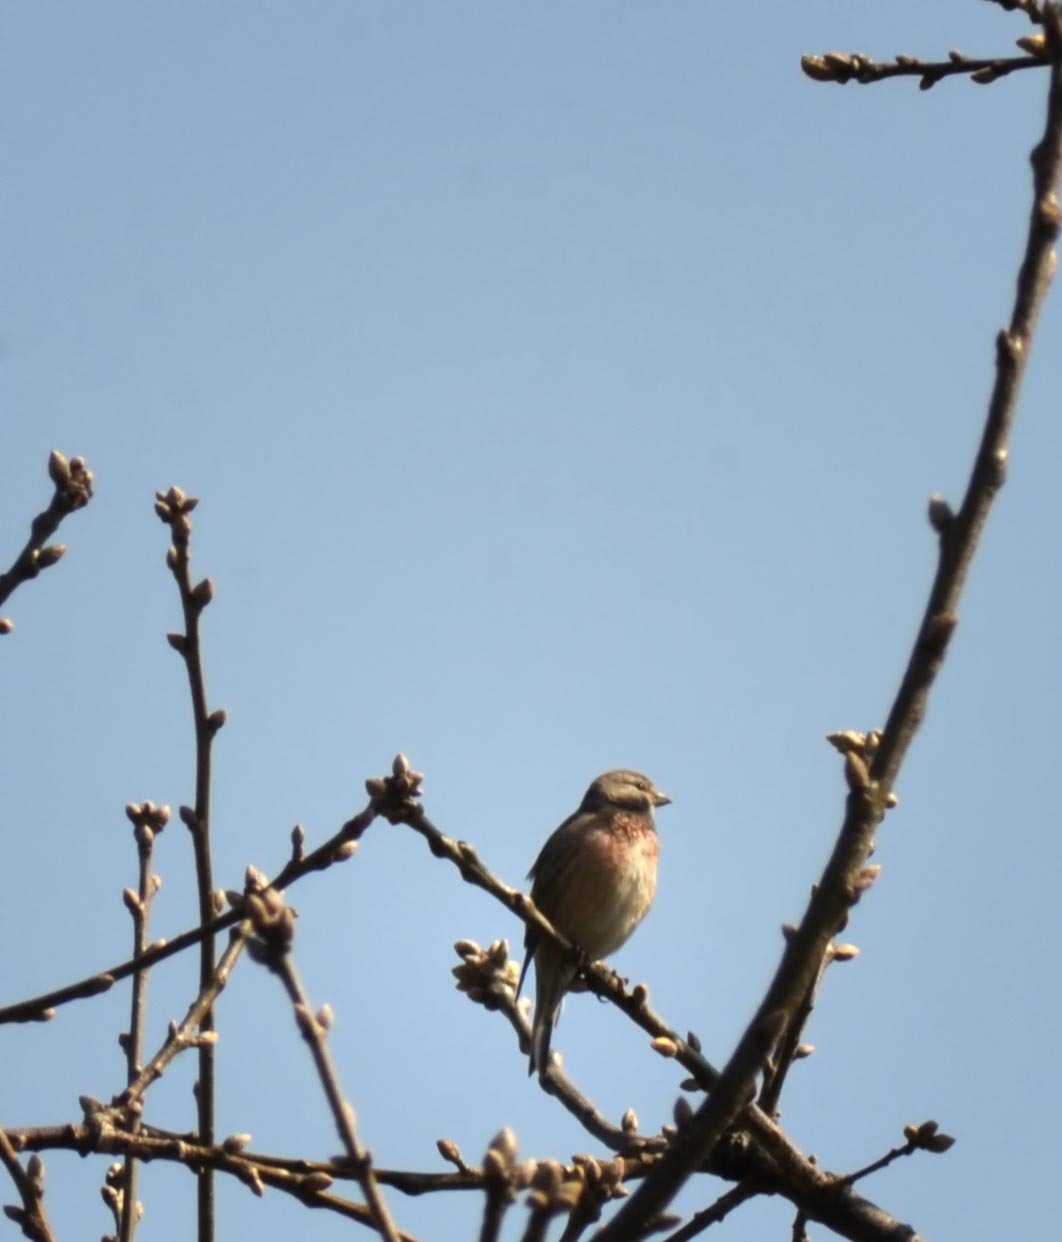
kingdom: Animalia
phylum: Chordata
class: Aves
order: Passeriformes
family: Fringillidae
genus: Linaria
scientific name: Linaria cannabina
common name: Common linnet
